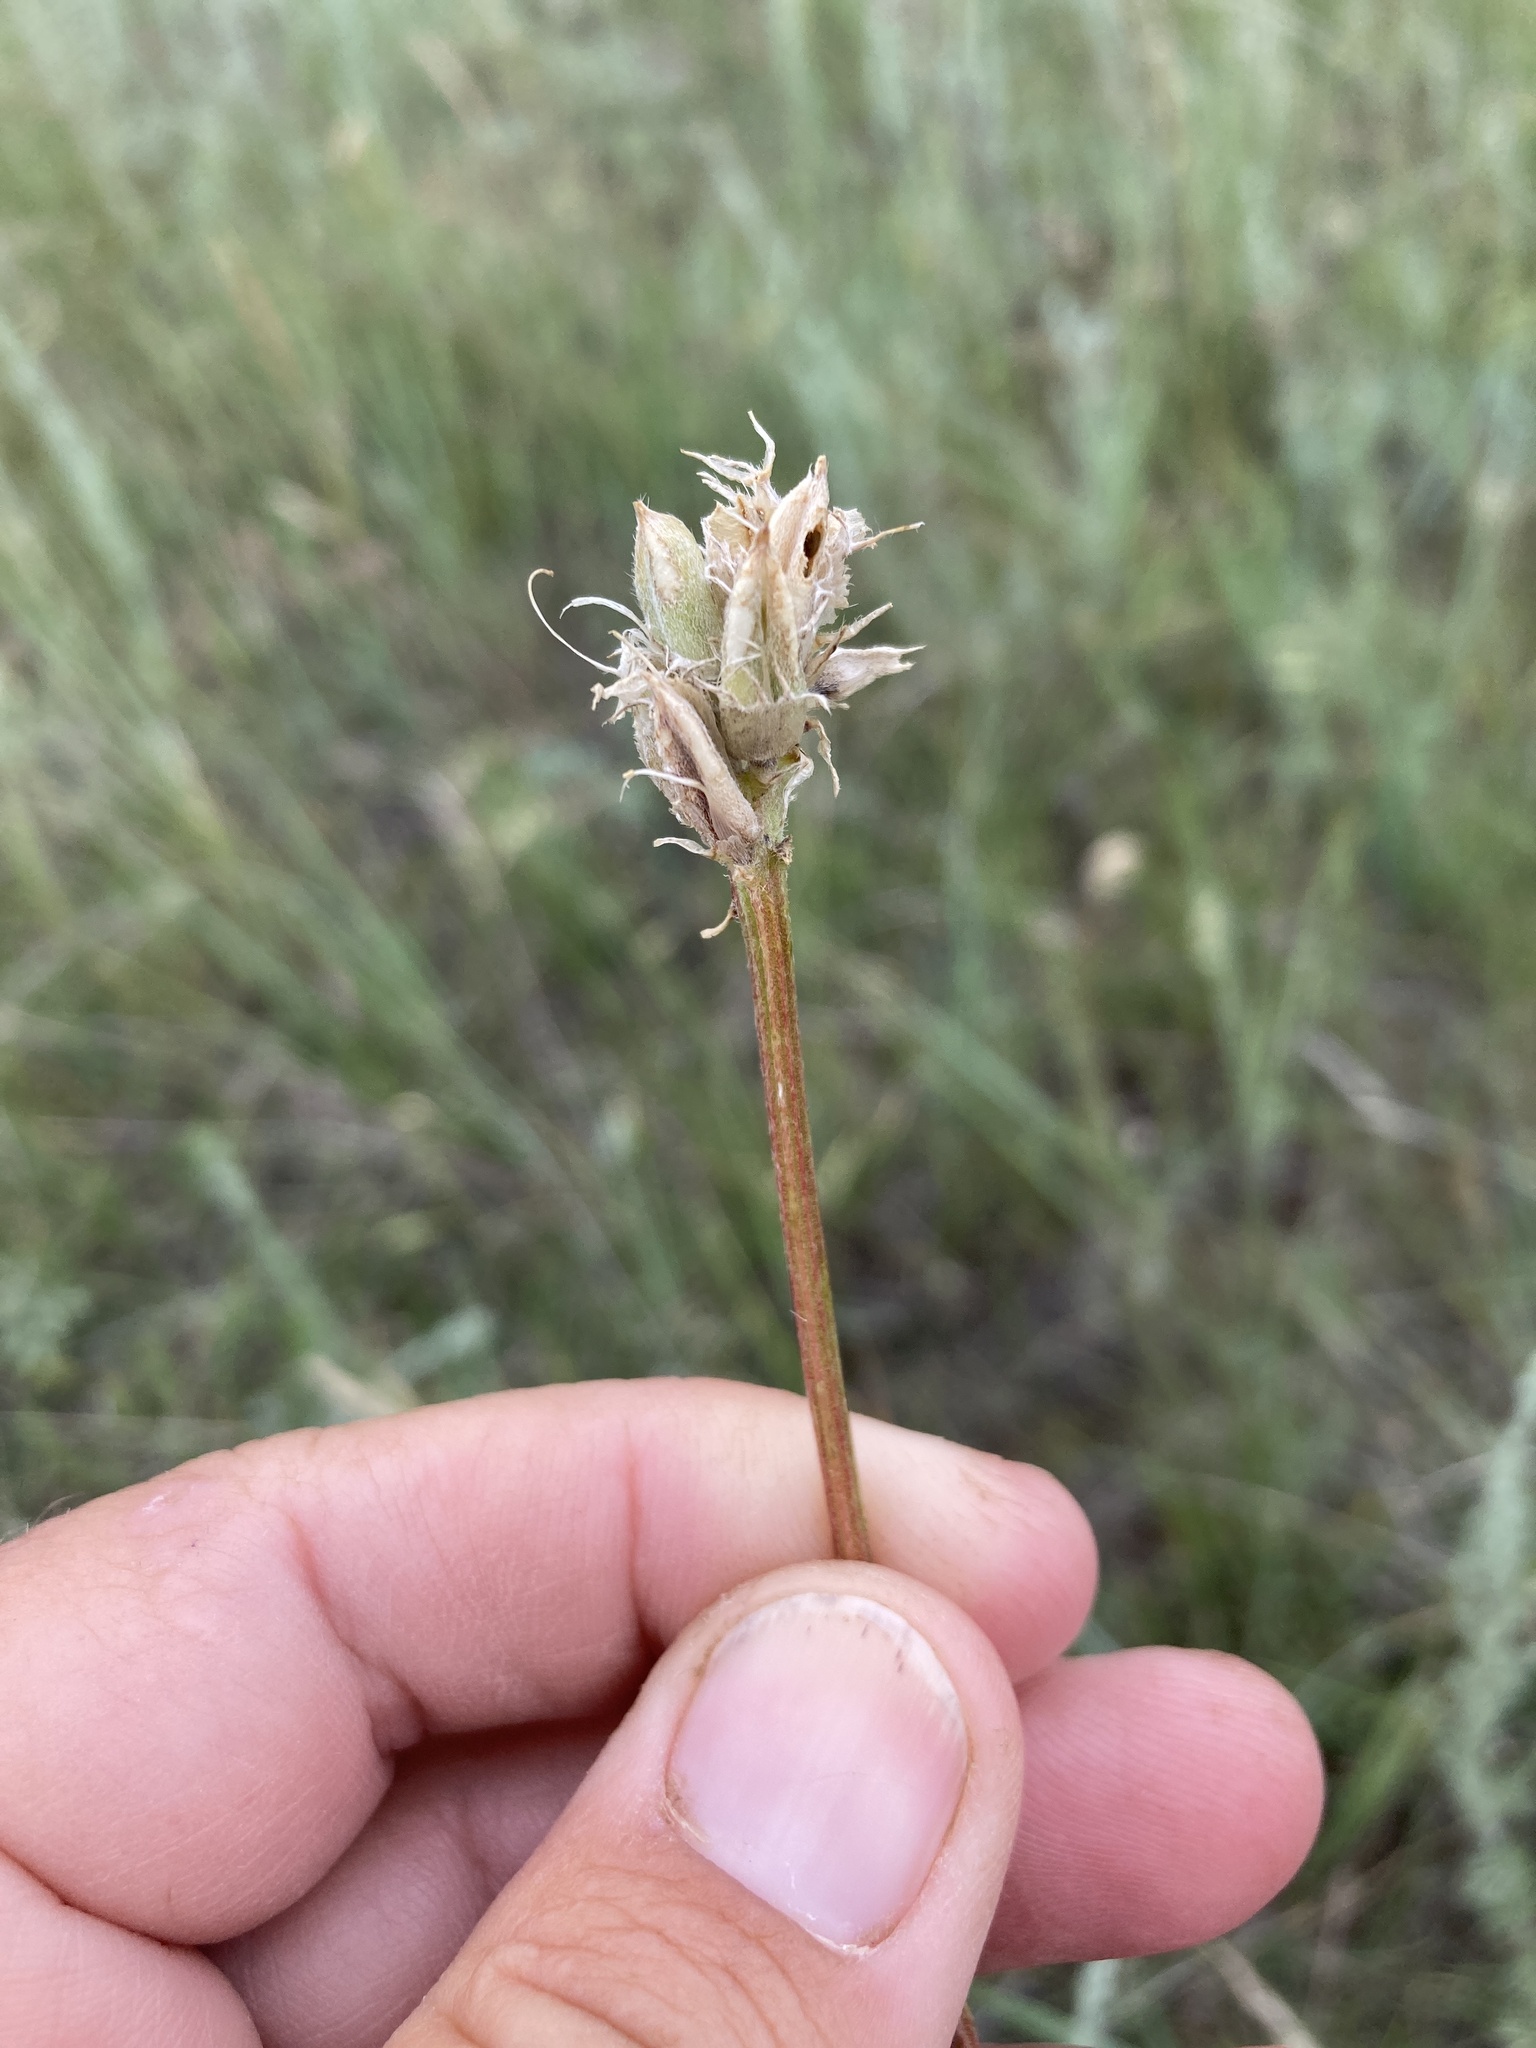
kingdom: Plantae
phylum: Tracheophyta
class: Magnoliopsida
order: Fabales
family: Fabaceae
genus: Astragalus
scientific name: Astragalus laxmannii
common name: Laxmann's milk-vetch
